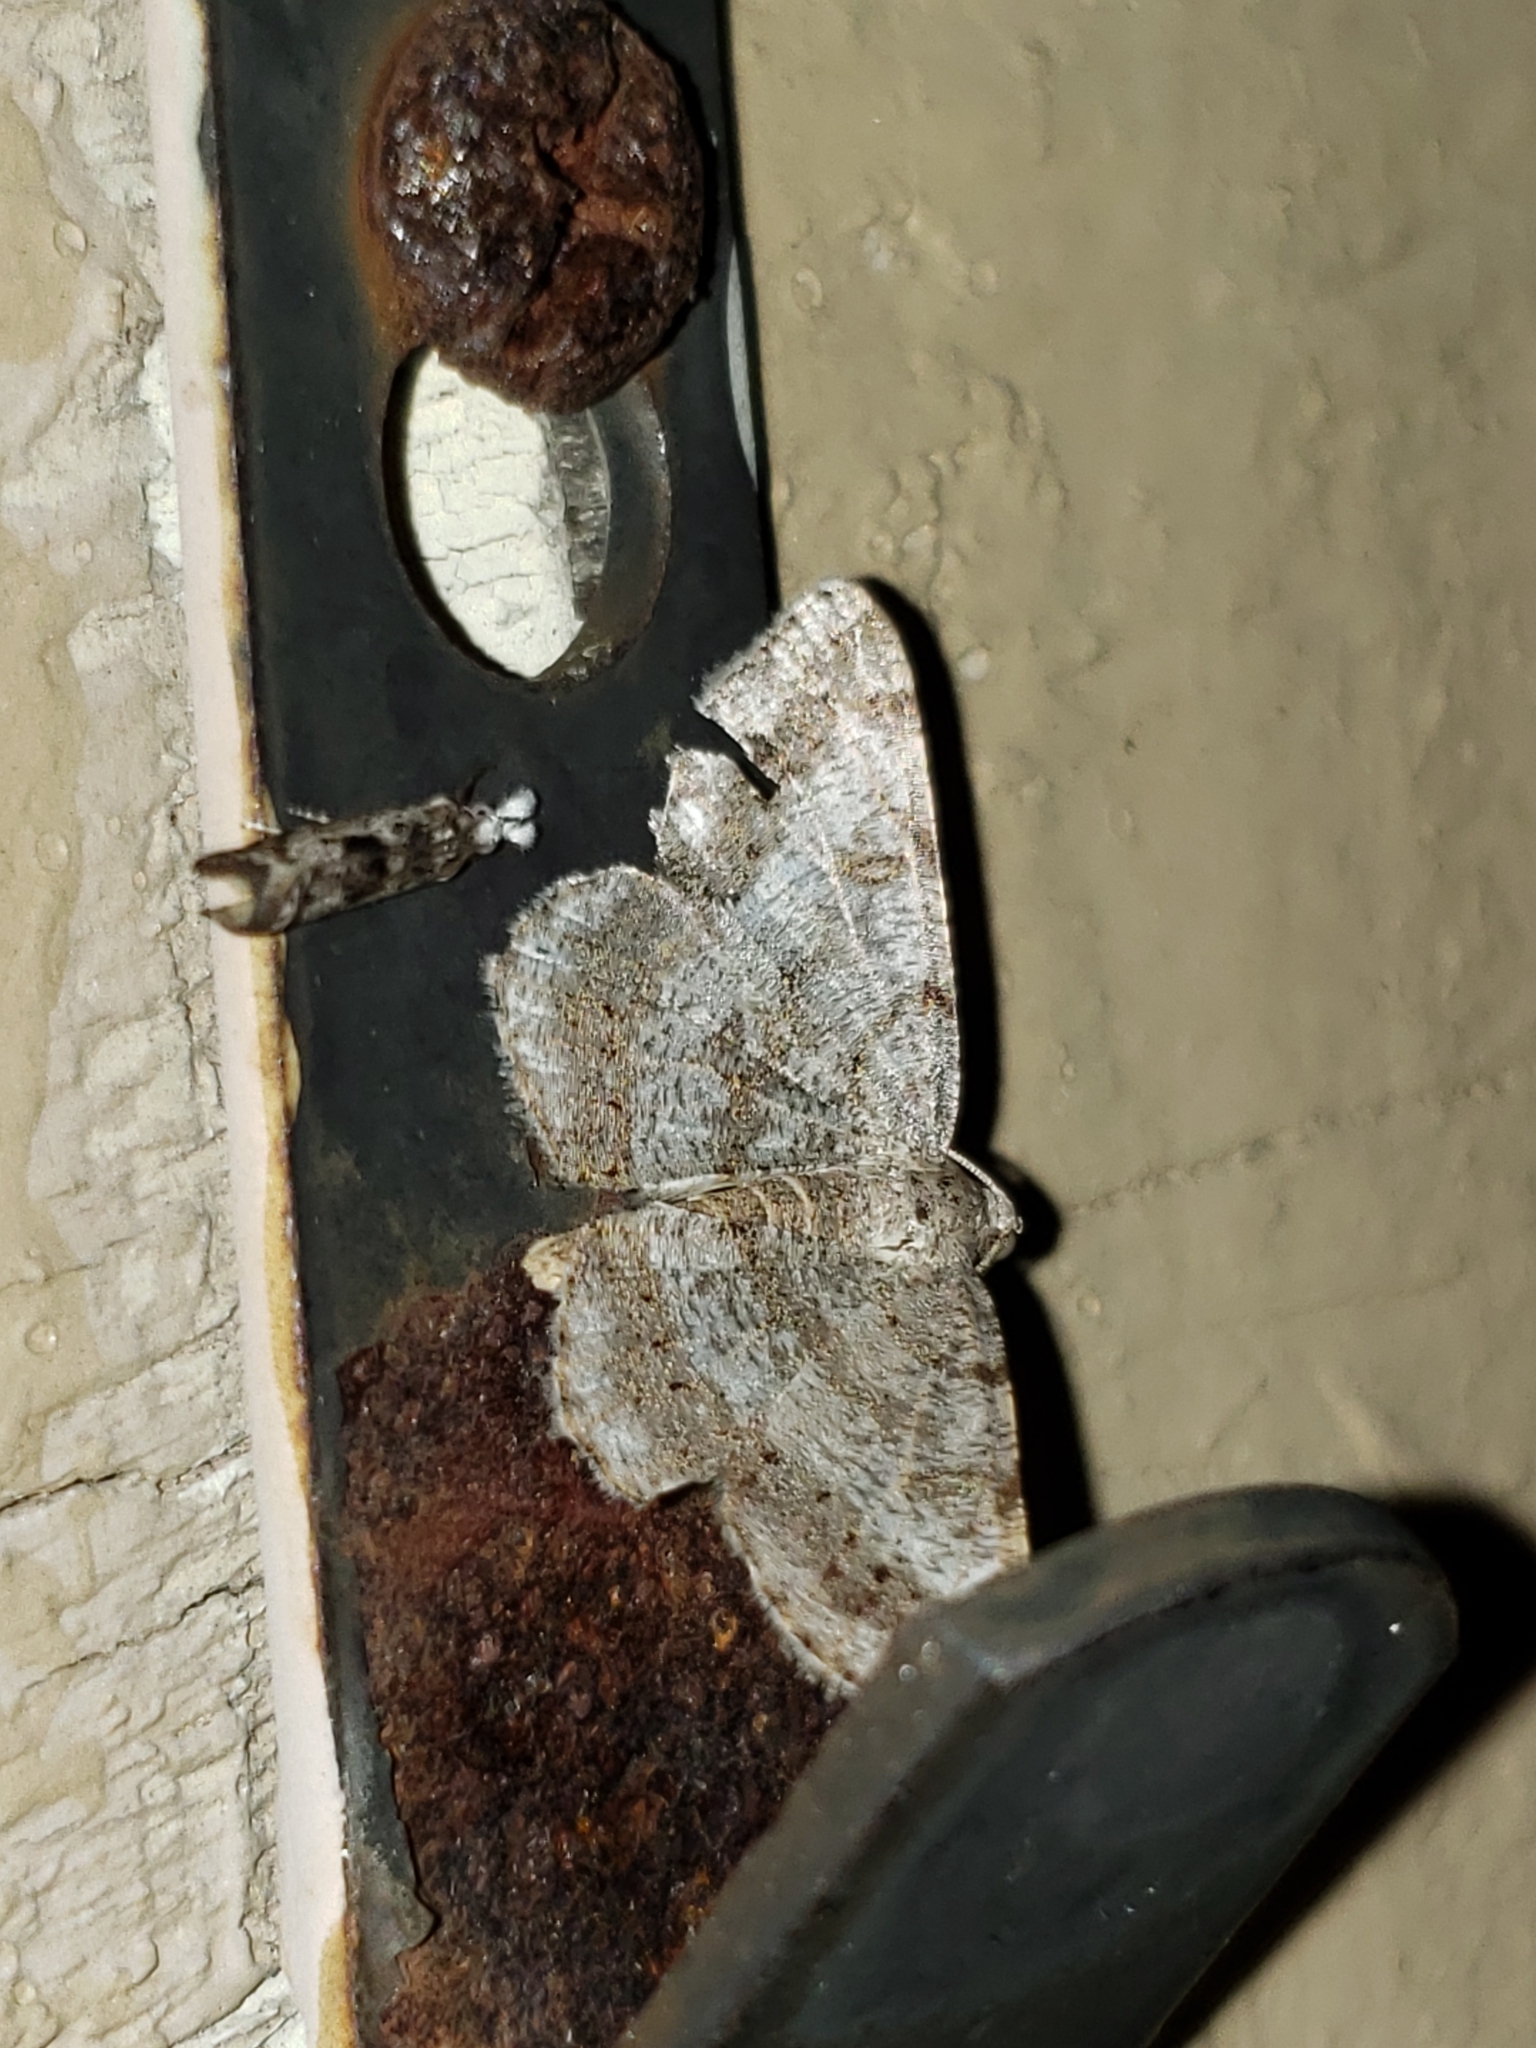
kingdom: Animalia
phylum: Arthropoda
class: Insecta
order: Lepidoptera
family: Geometridae
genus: Digrammia
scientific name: Digrammia ocellinata
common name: Faint-spotted angle
